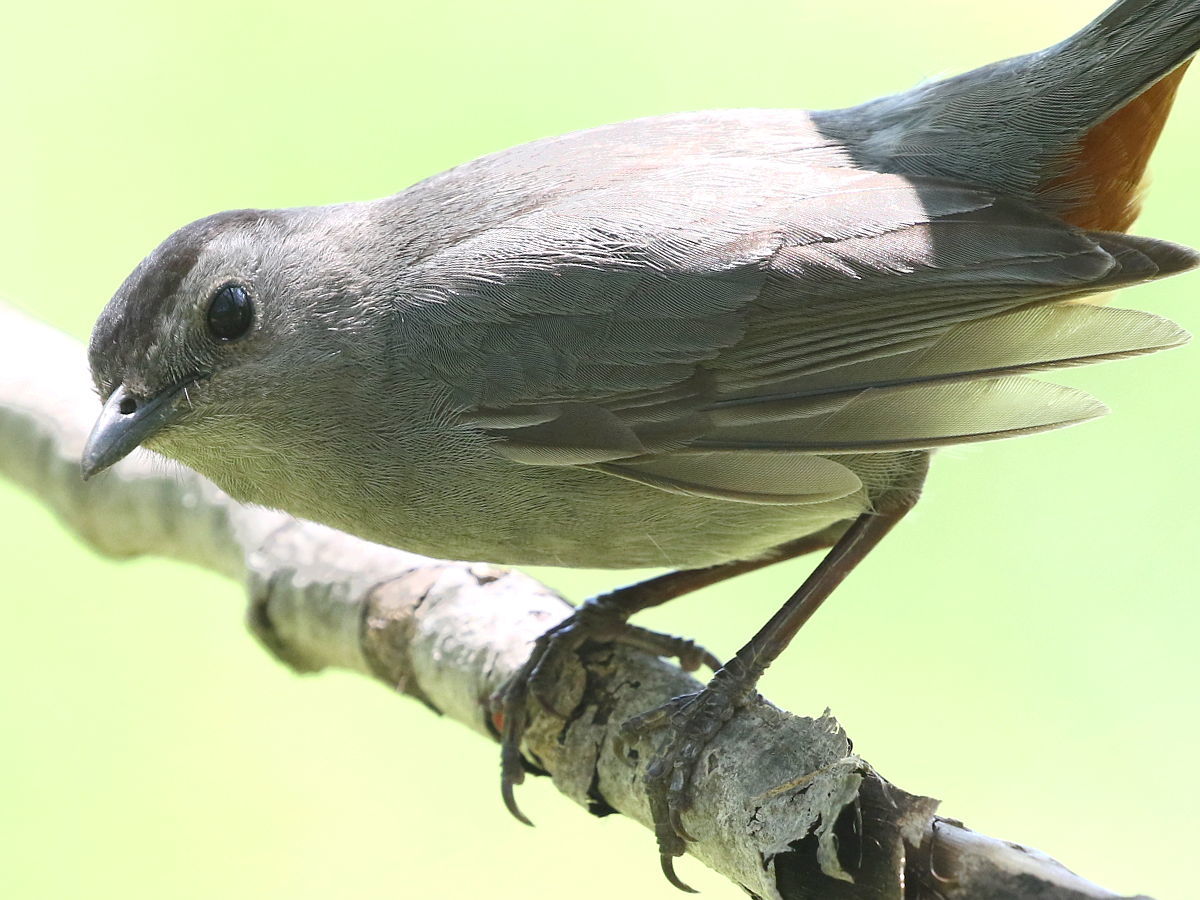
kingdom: Animalia
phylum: Chordata
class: Aves
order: Passeriformes
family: Mimidae
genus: Dumetella
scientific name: Dumetella carolinensis
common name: Gray catbird
